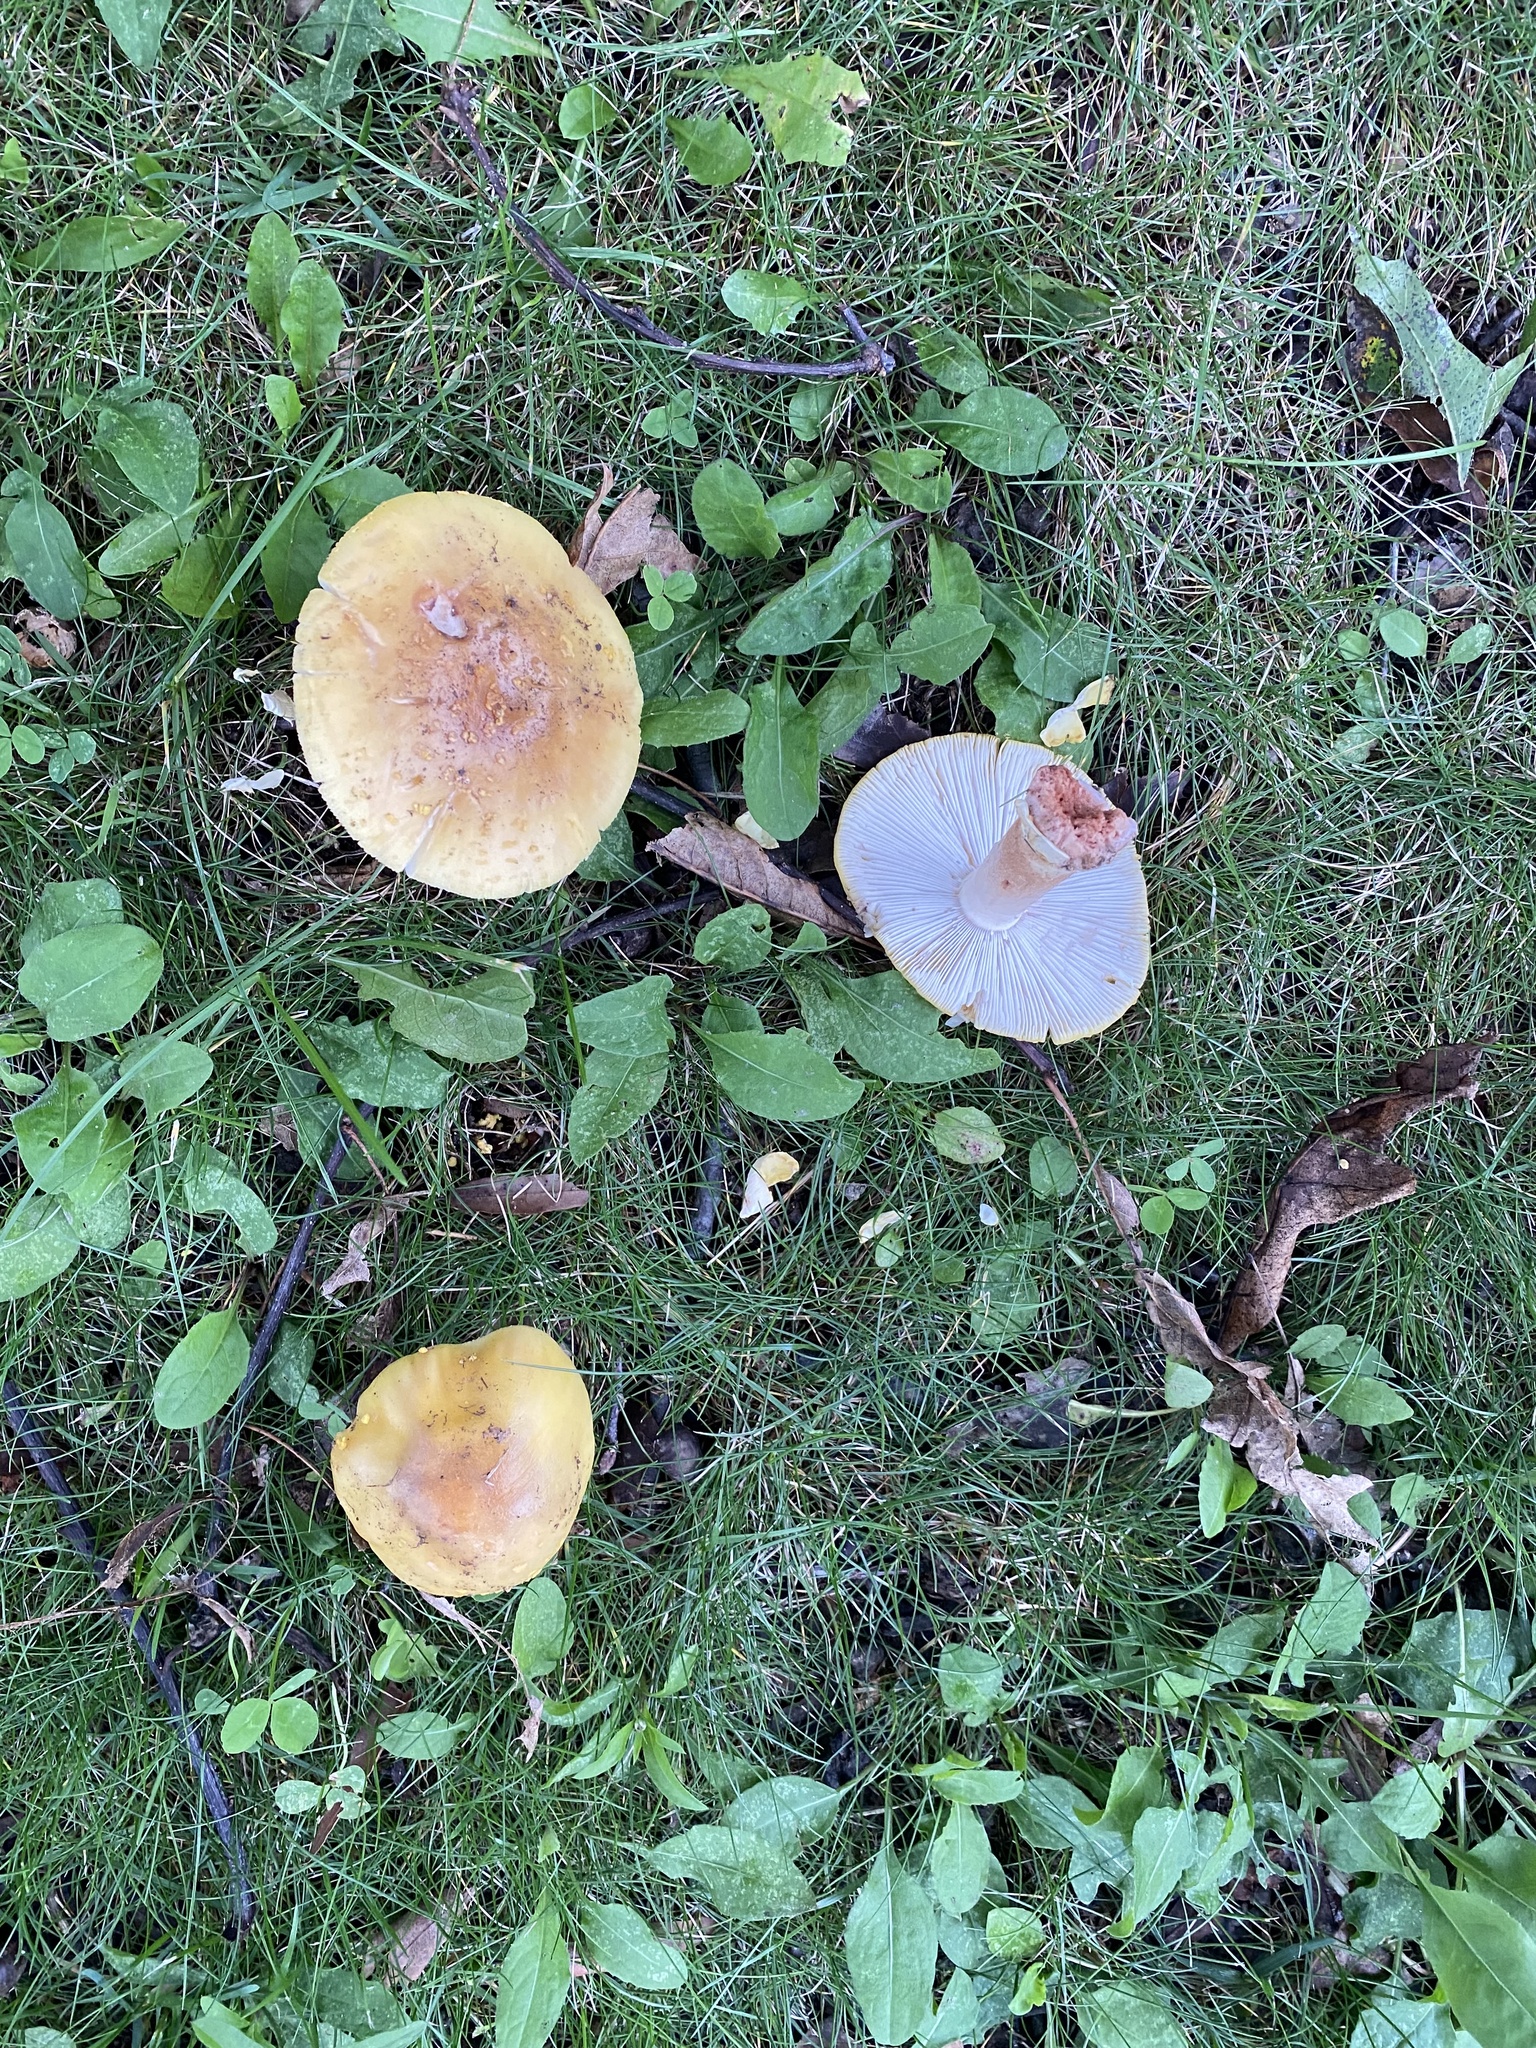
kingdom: Fungi
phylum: Basidiomycota
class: Agaricomycetes
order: Agaricales
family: Amanitaceae
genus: Amanita
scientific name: Amanita flavorubens
